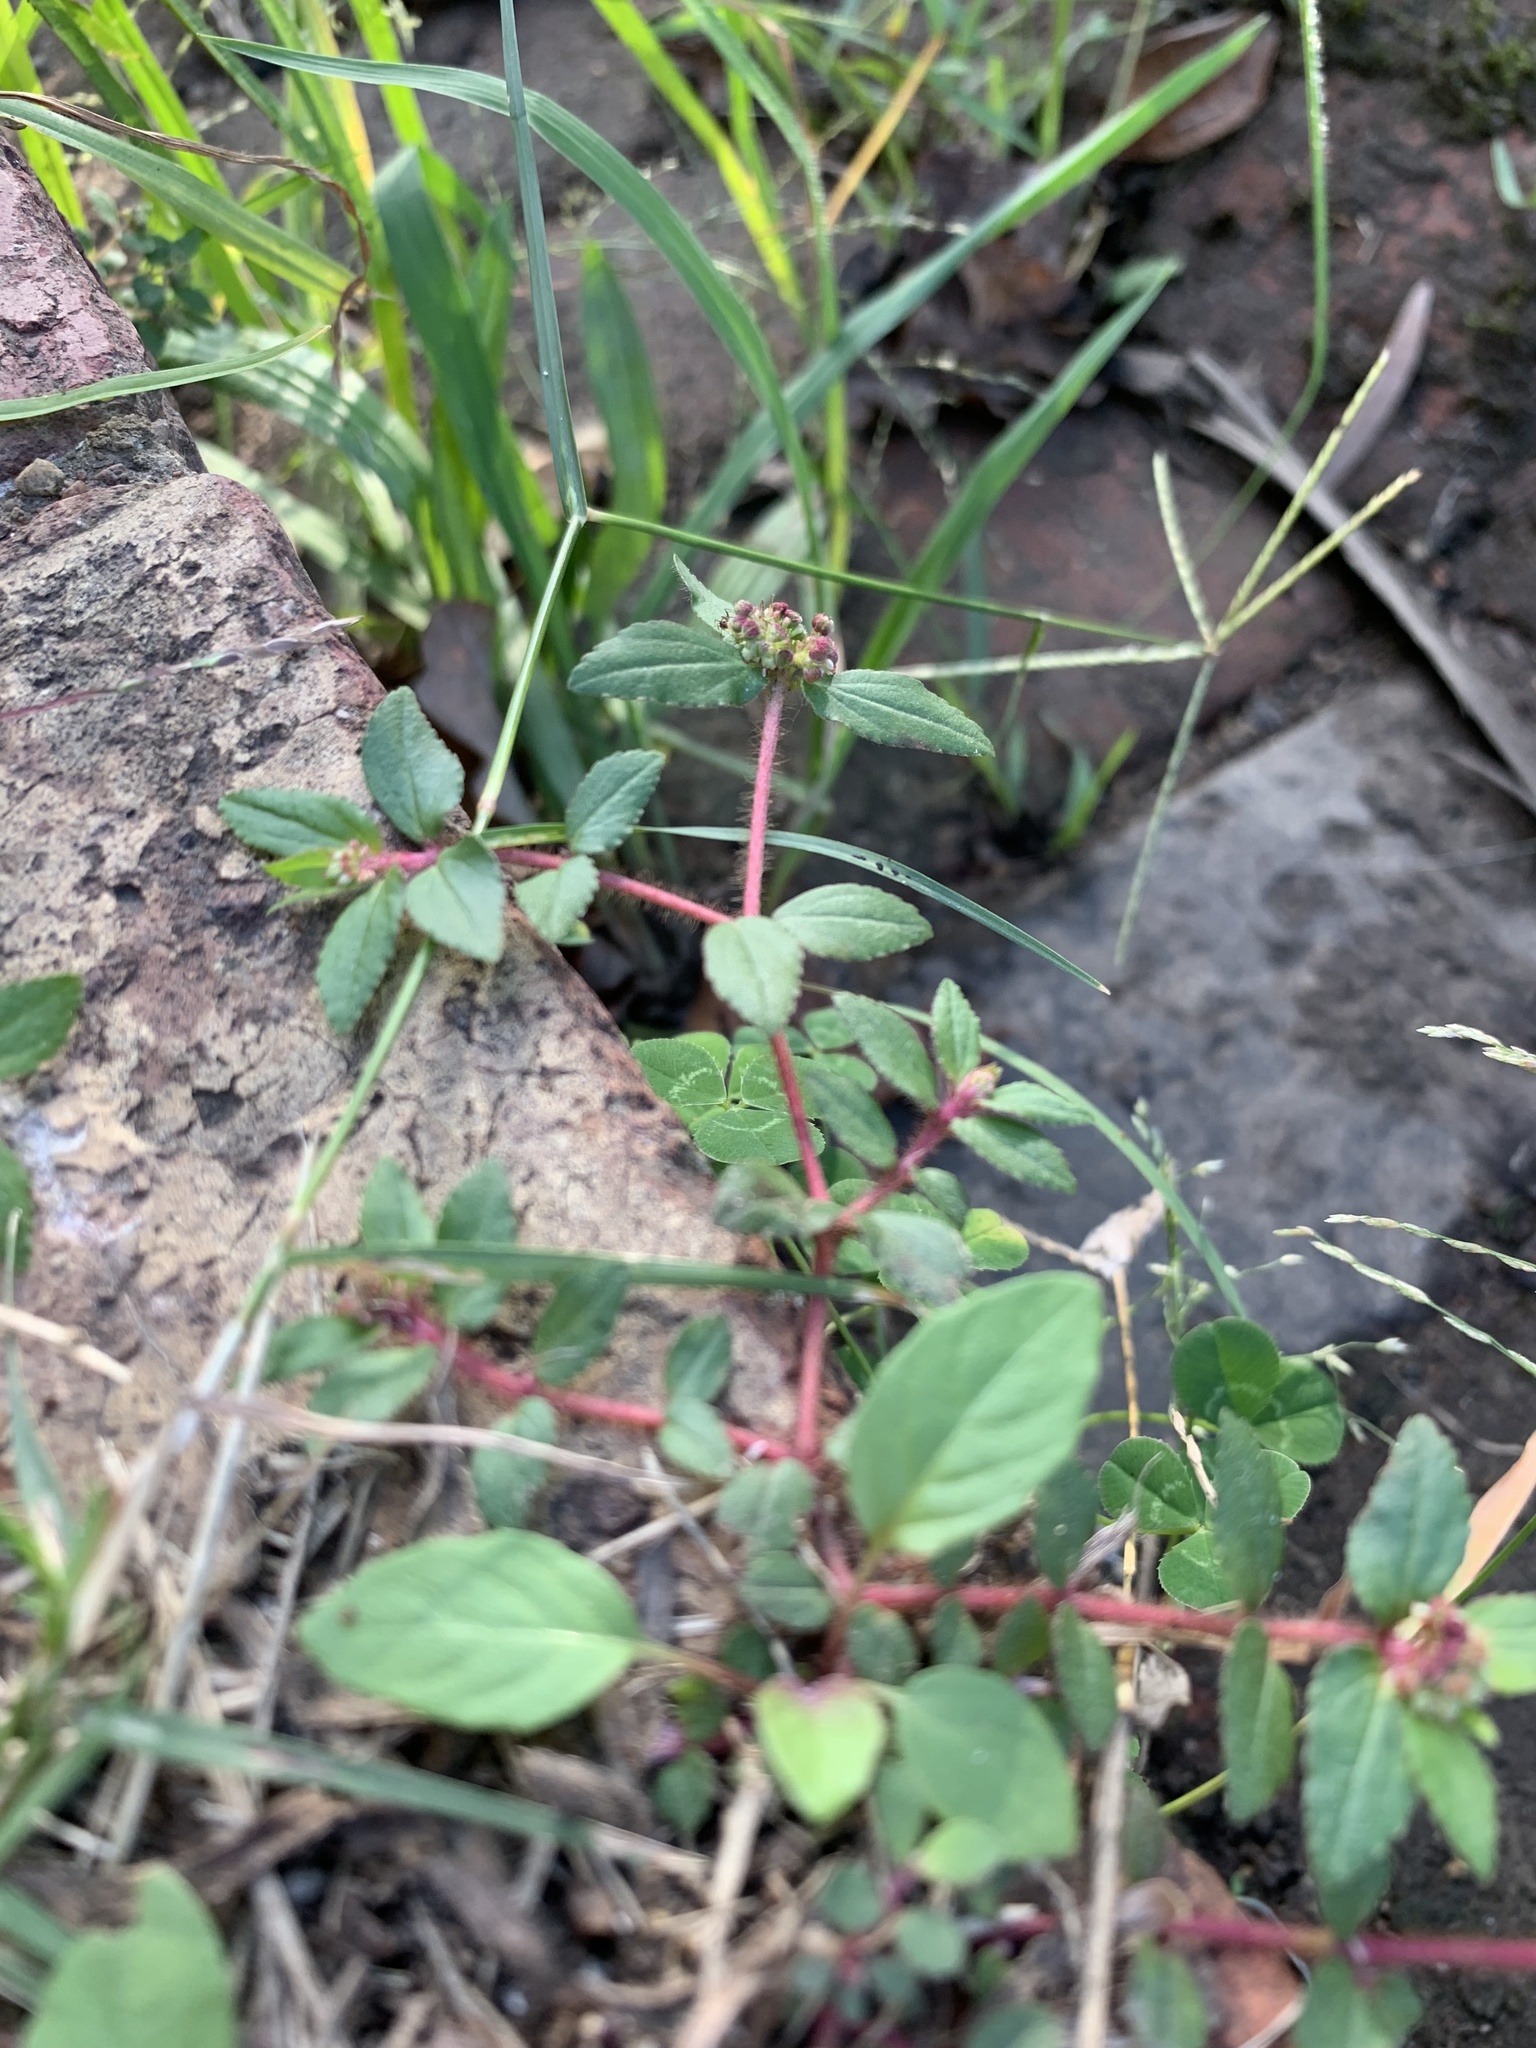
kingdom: Plantae
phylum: Tracheophyta
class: Magnoliopsida
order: Malpighiales
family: Euphorbiaceae
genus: Euphorbia
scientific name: Euphorbia ophthalmica
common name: Florida hammock sandmat
